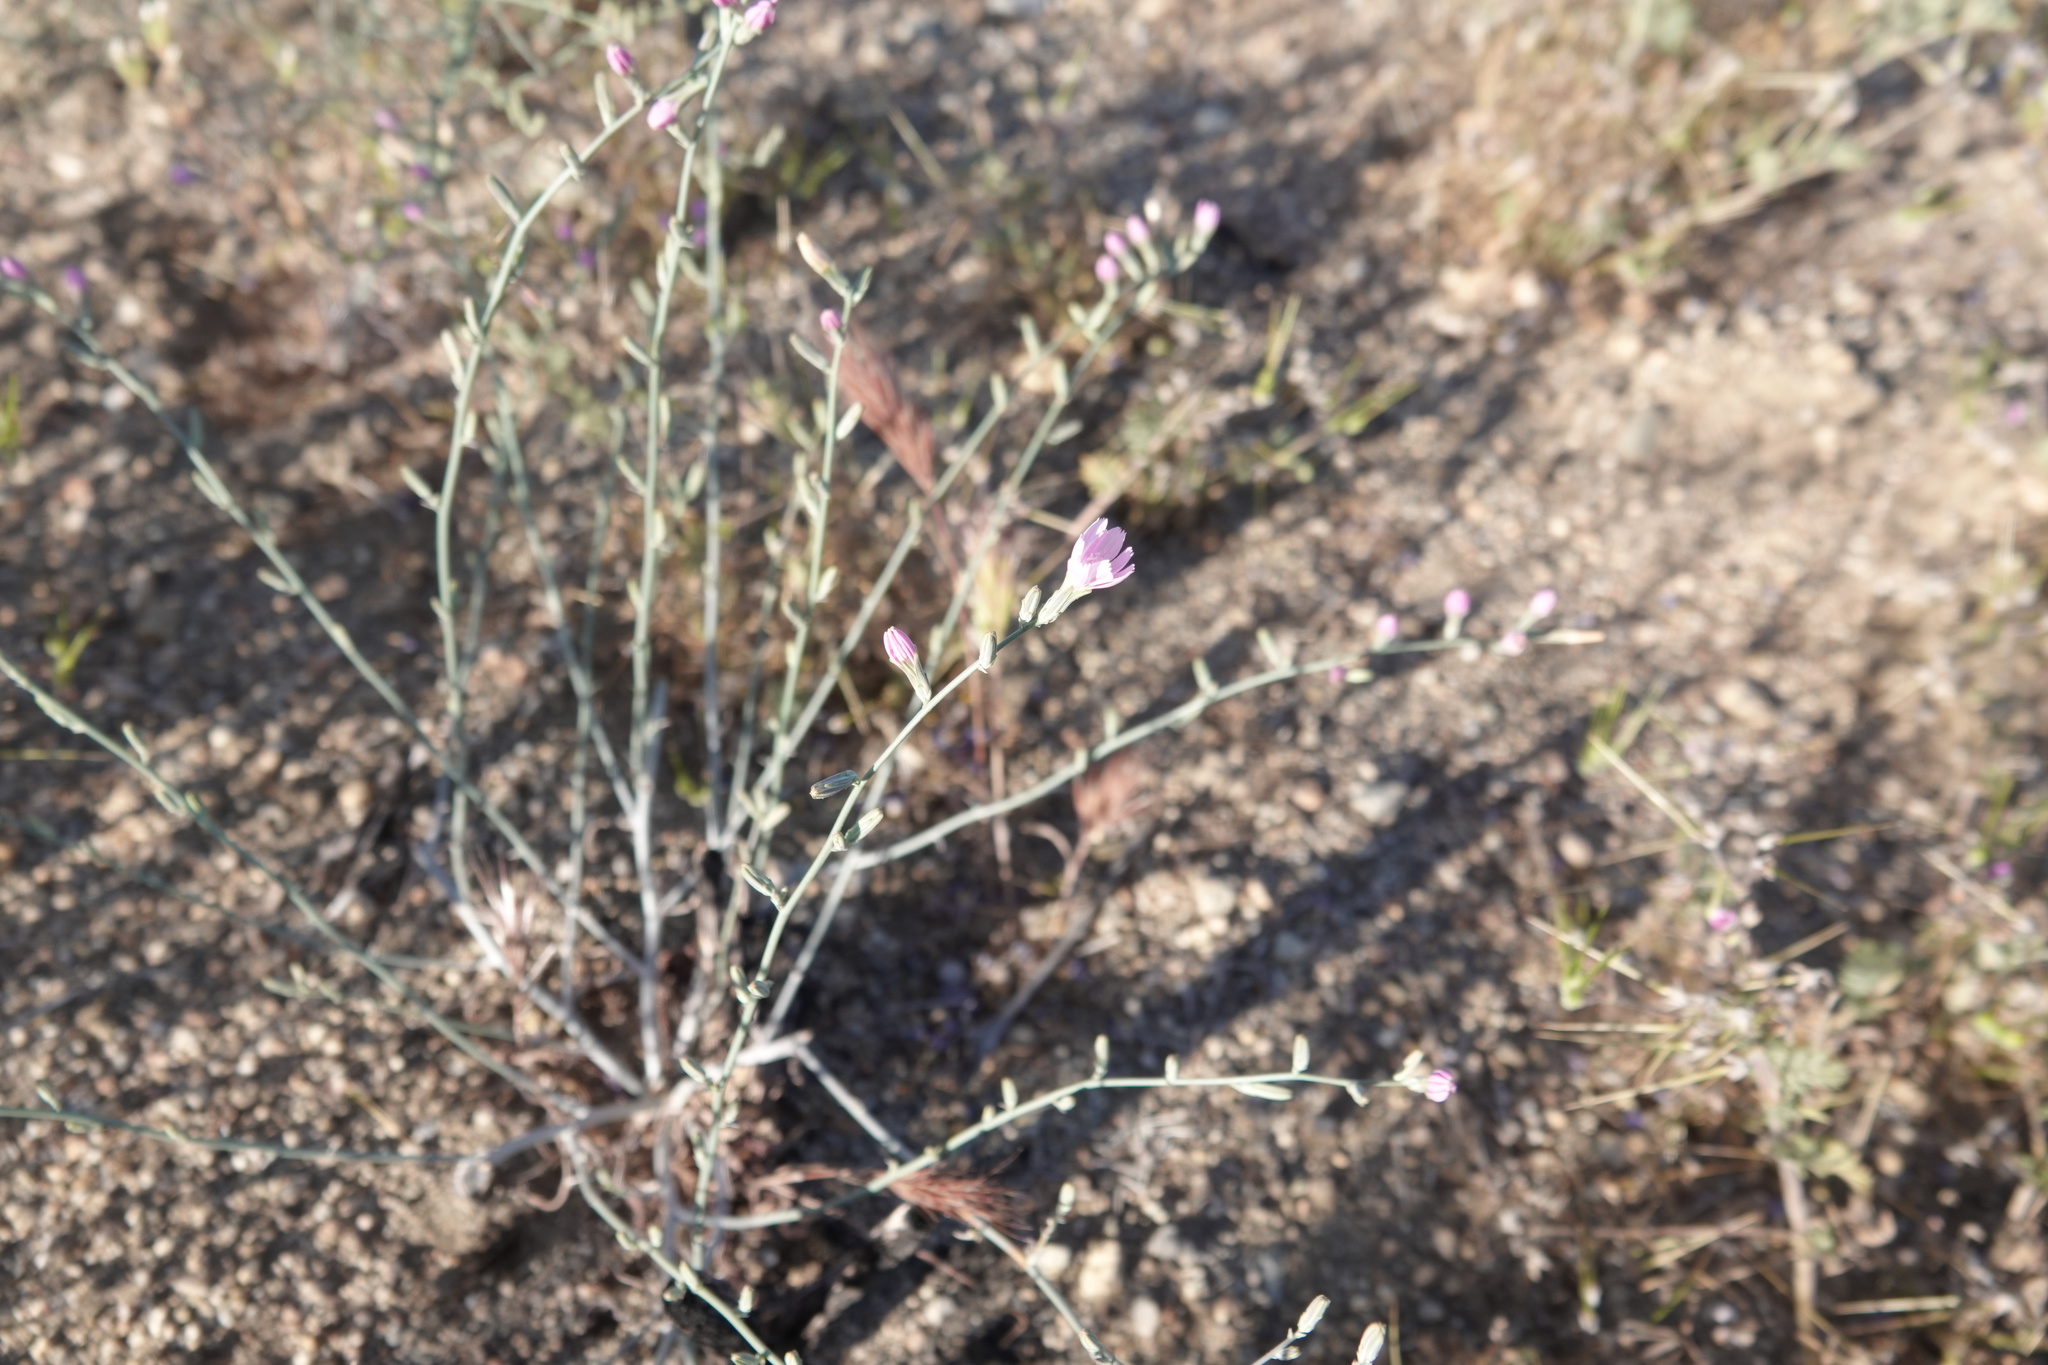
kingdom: Plantae
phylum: Tracheophyta
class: Magnoliopsida
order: Asterales
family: Asteraceae
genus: Stephanomeria
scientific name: Stephanomeria exigua
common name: Small wirelettuce
